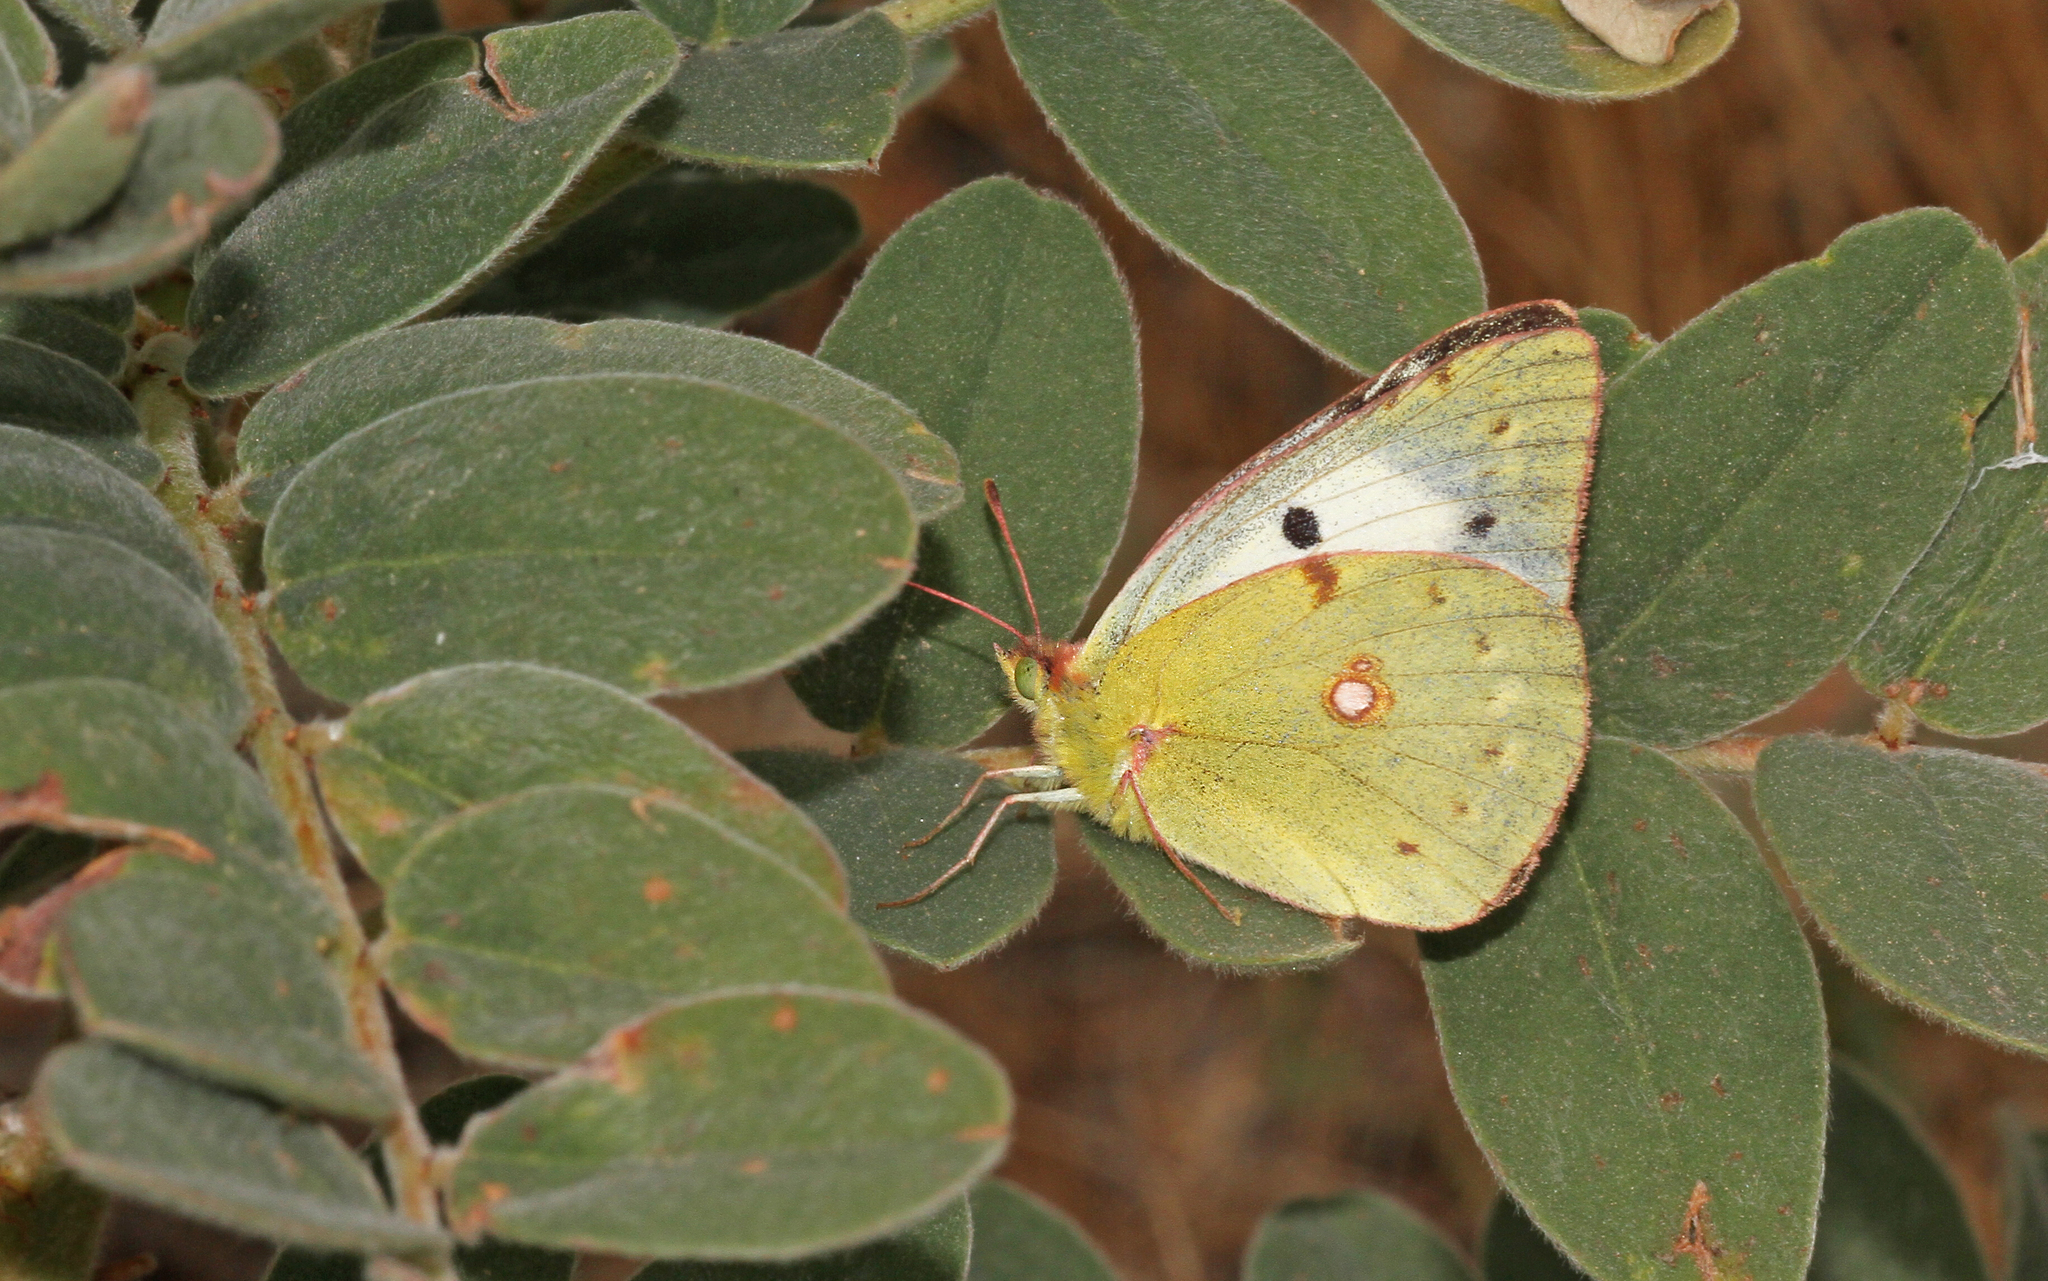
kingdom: Animalia
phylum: Arthropoda
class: Insecta
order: Lepidoptera
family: Pieridae
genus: Colias
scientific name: Colias croceus
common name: Clouded yellow
